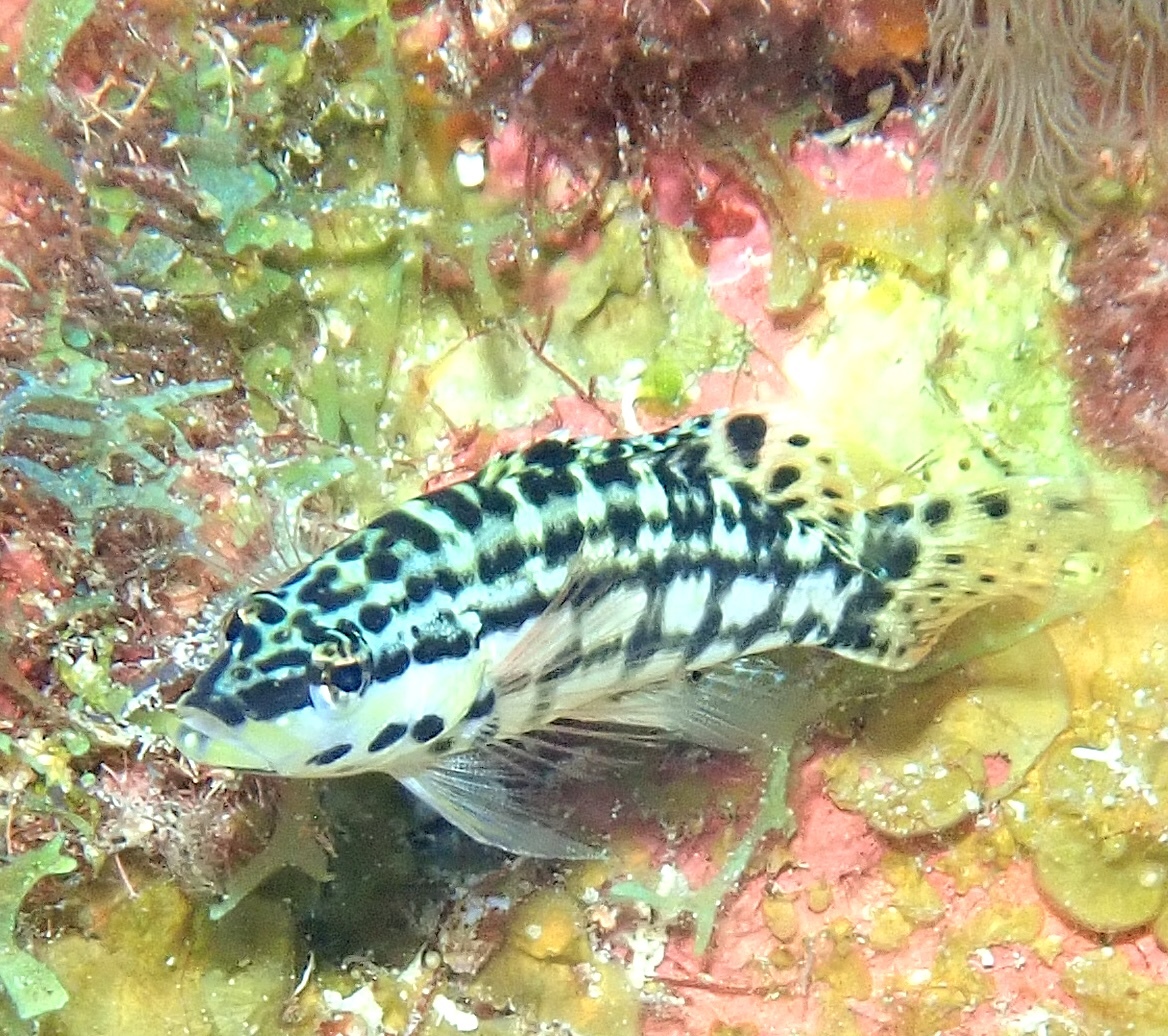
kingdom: Animalia
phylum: Chordata
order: Perciformes
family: Serranidae
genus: Serranus
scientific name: Serranus tigrinus
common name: Harlequin bass
